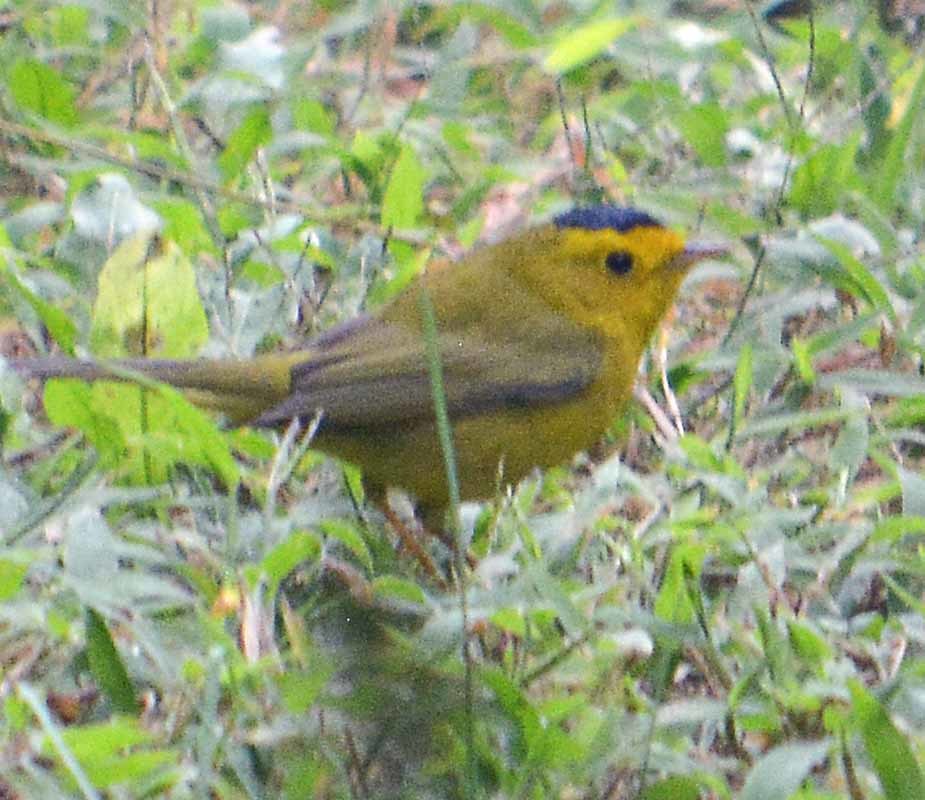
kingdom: Animalia
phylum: Chordata
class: Aves
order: Passeriformes
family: Parulidae
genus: Cardellina
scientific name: Cardellina pusilla
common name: Wilson's warbler
